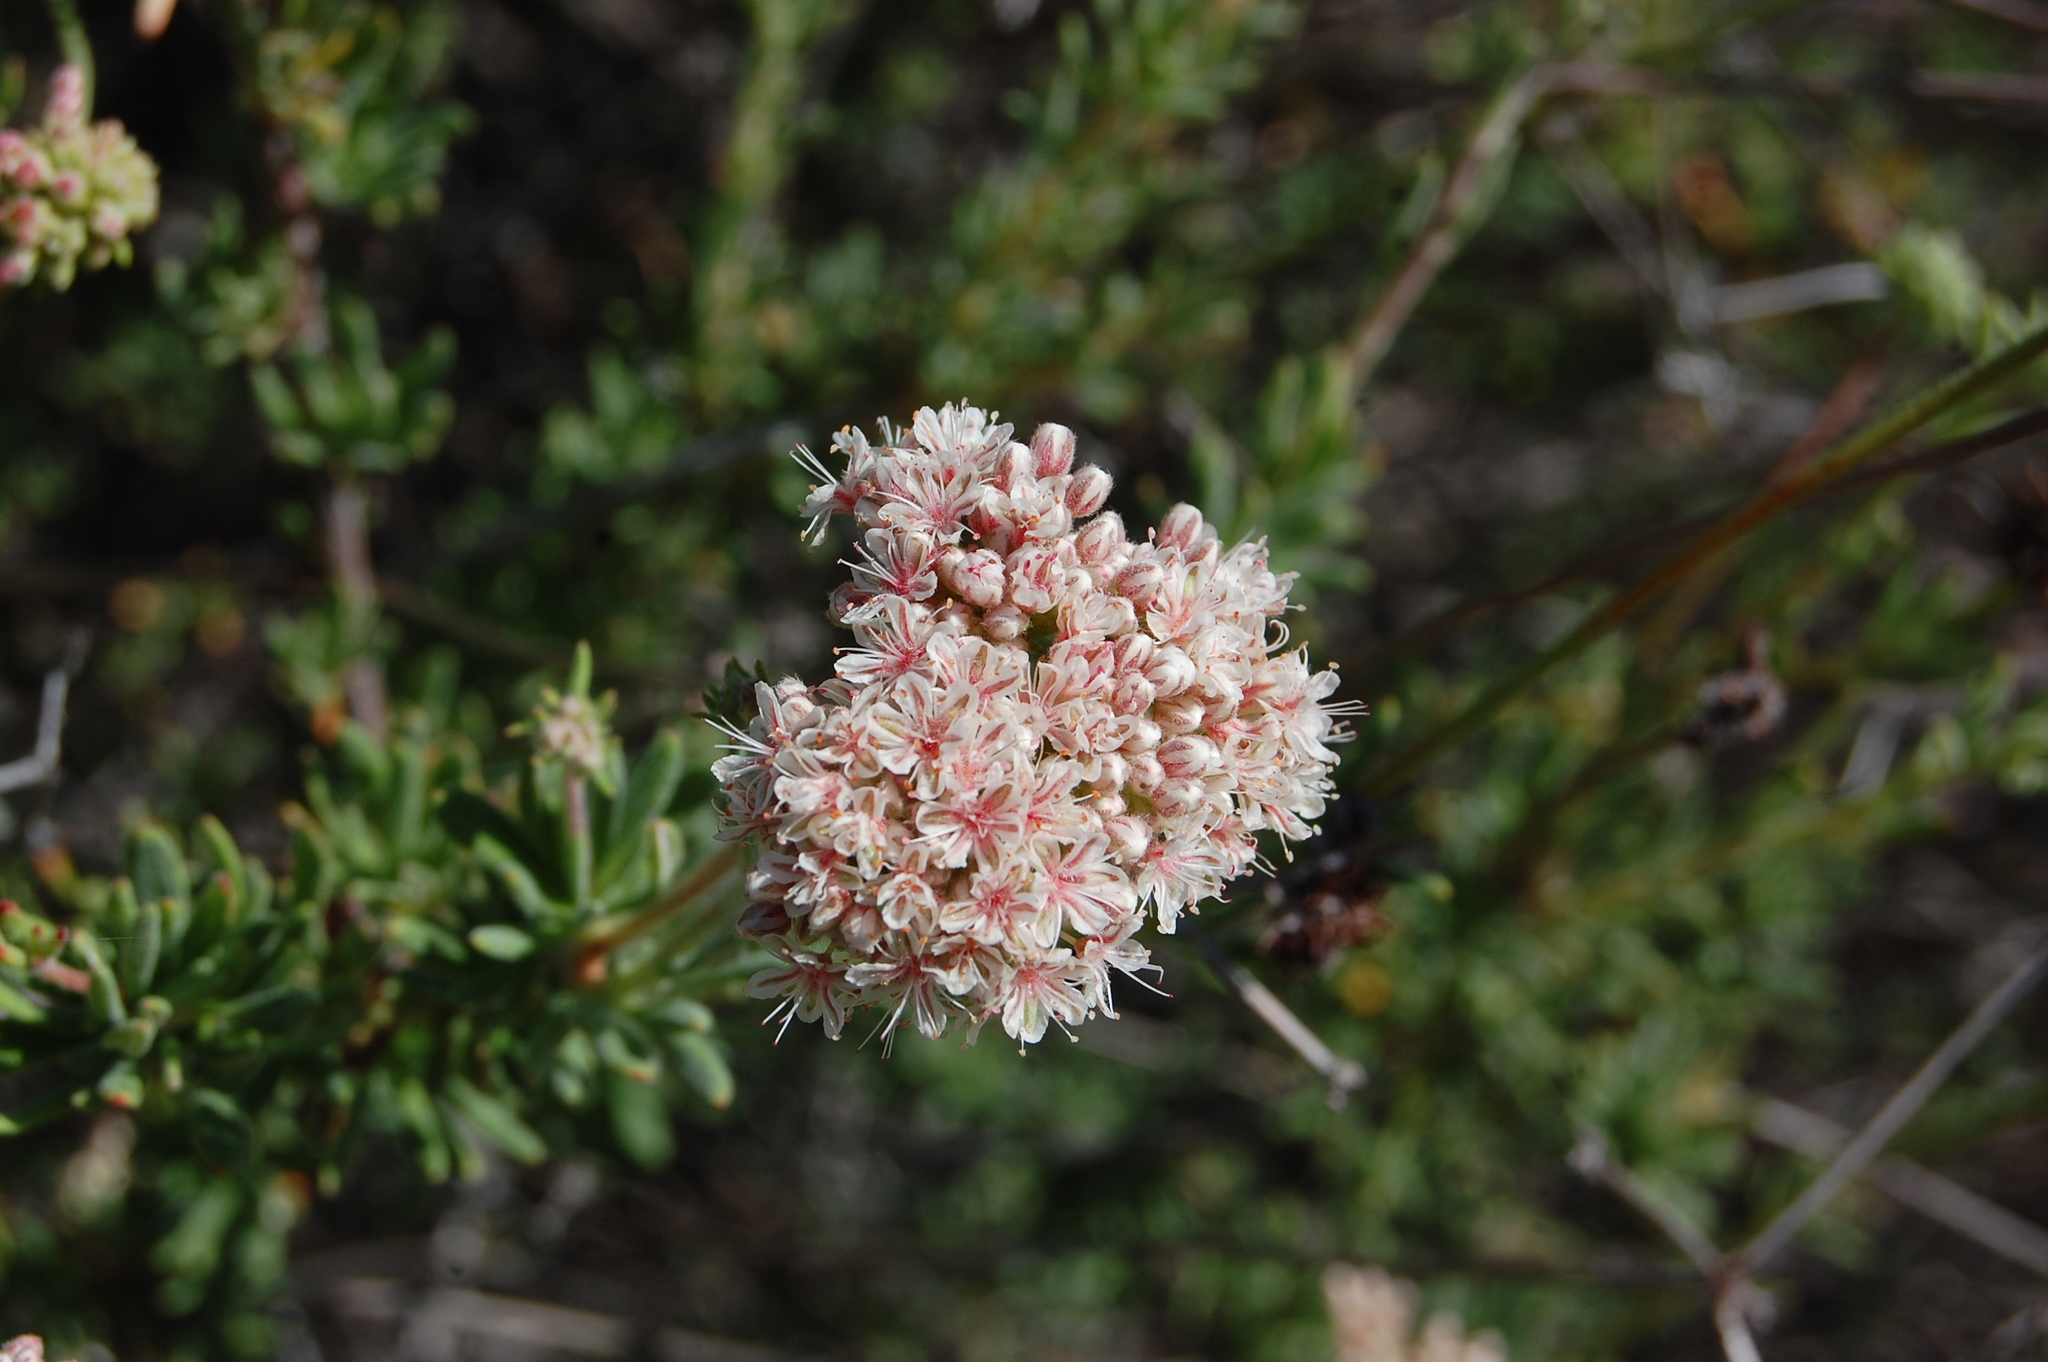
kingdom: Plantae
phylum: Tracheophyta
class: Magnoliopsida
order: Caryophyllales
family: Polygonaceae
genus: Eriogonum
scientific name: Eriogonum fasciculatum
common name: California wild buckwheat
